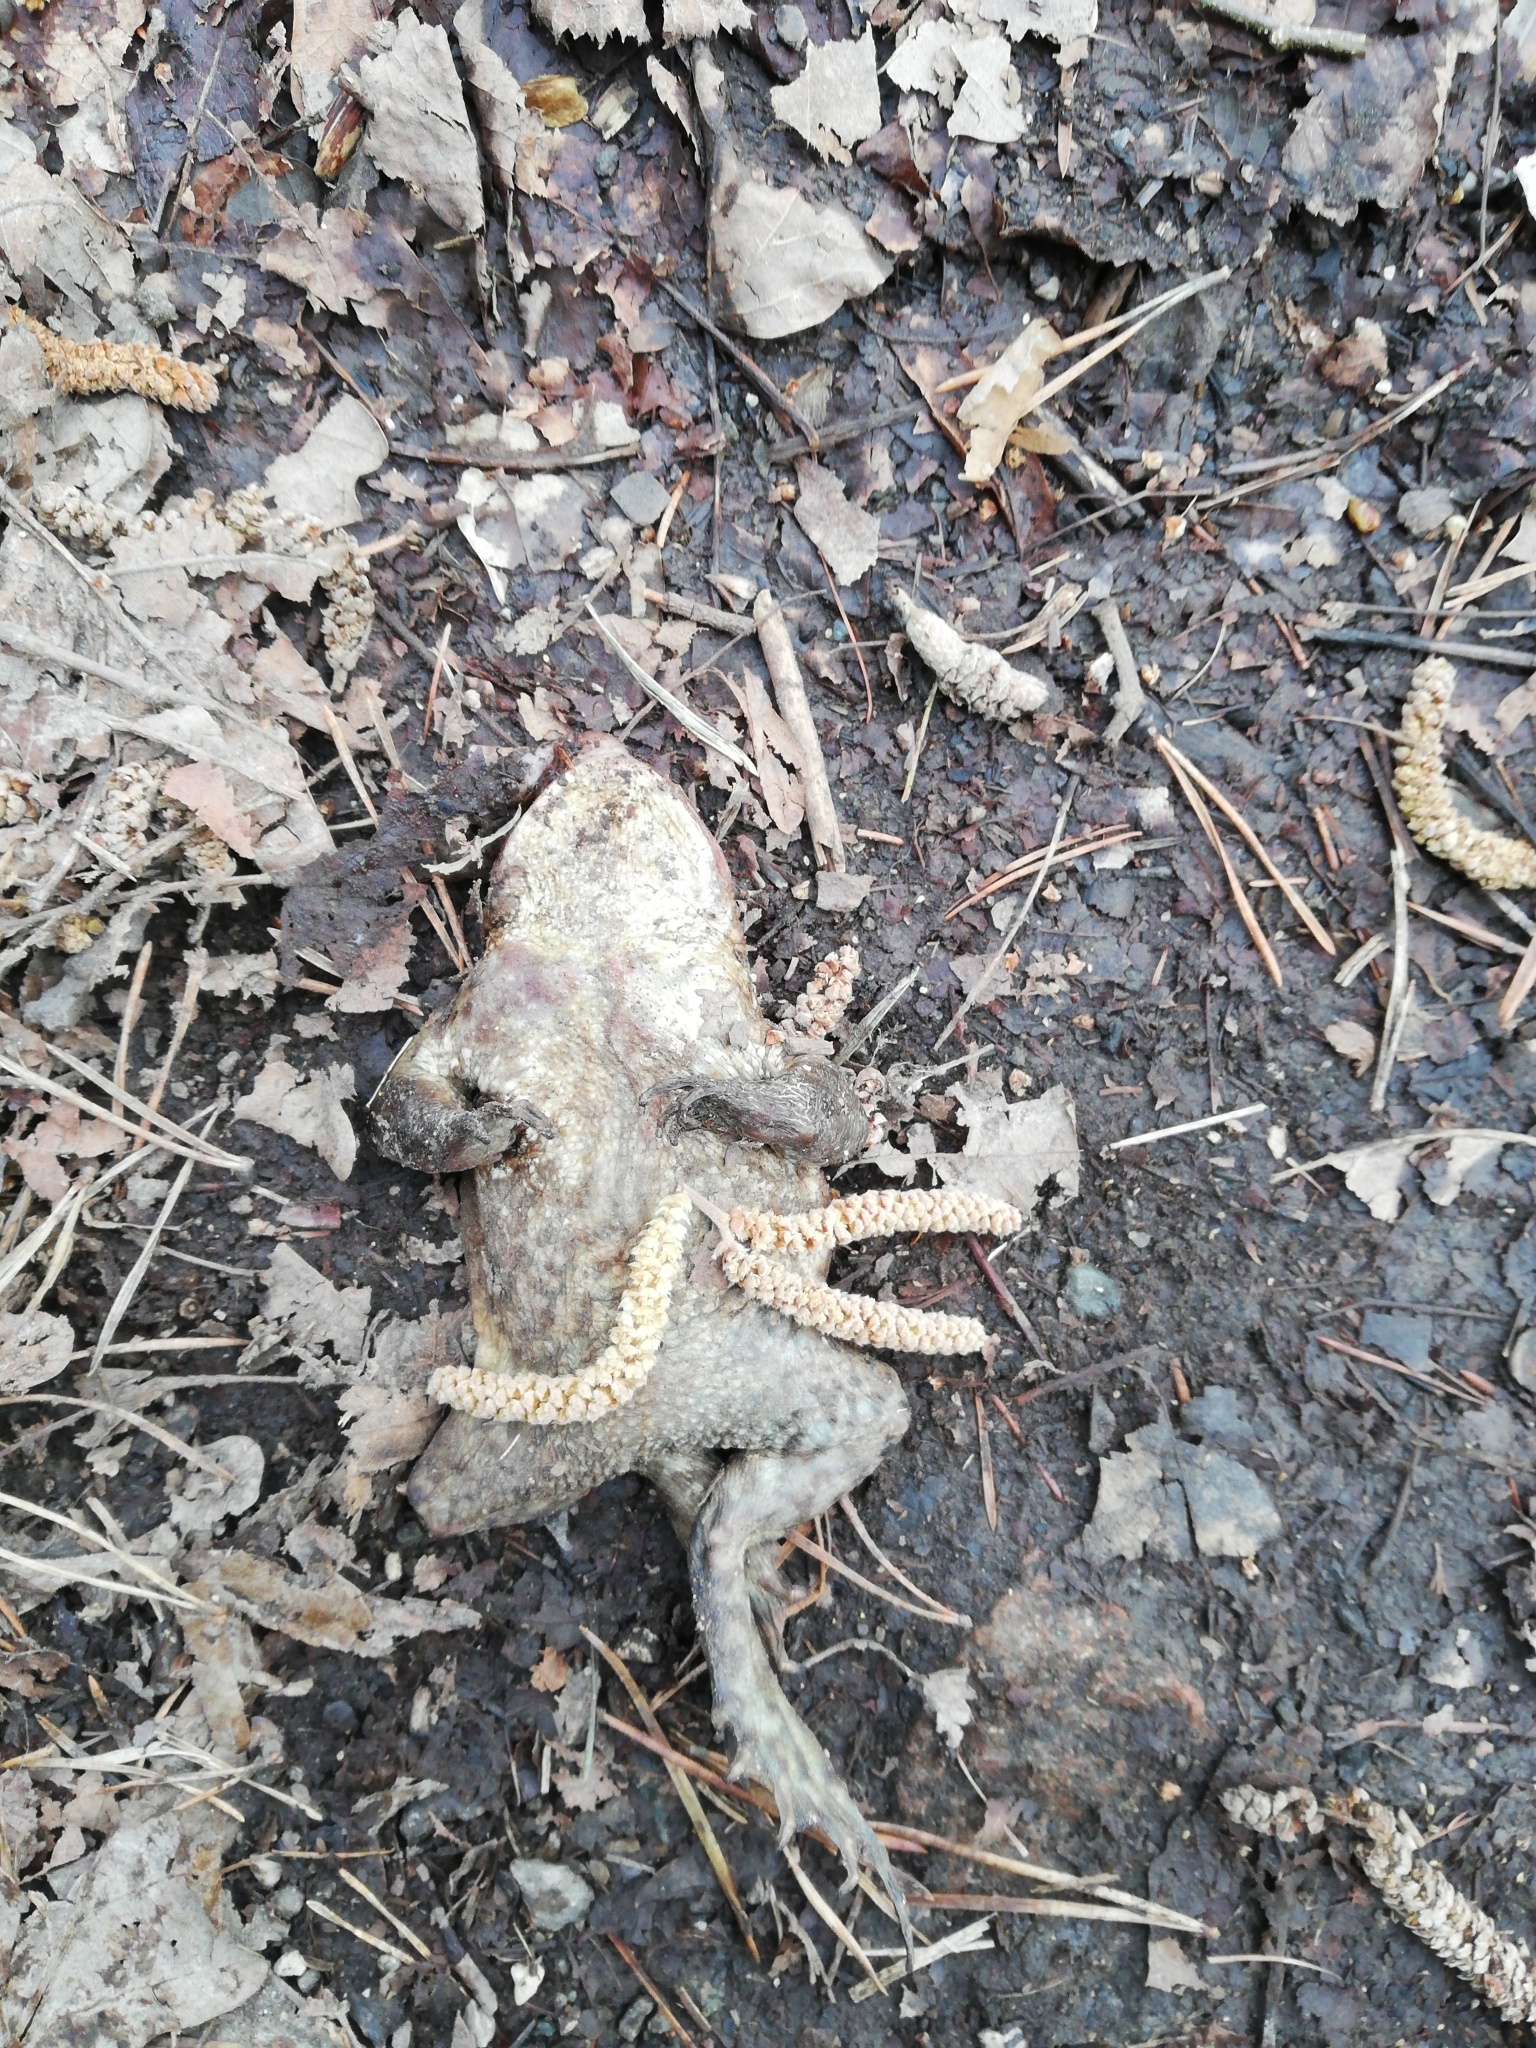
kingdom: Animalia
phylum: Chordata
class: Amphibia
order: Anura
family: Bufonidae
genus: Bufo
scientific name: Bufo bufo
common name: Common toad
